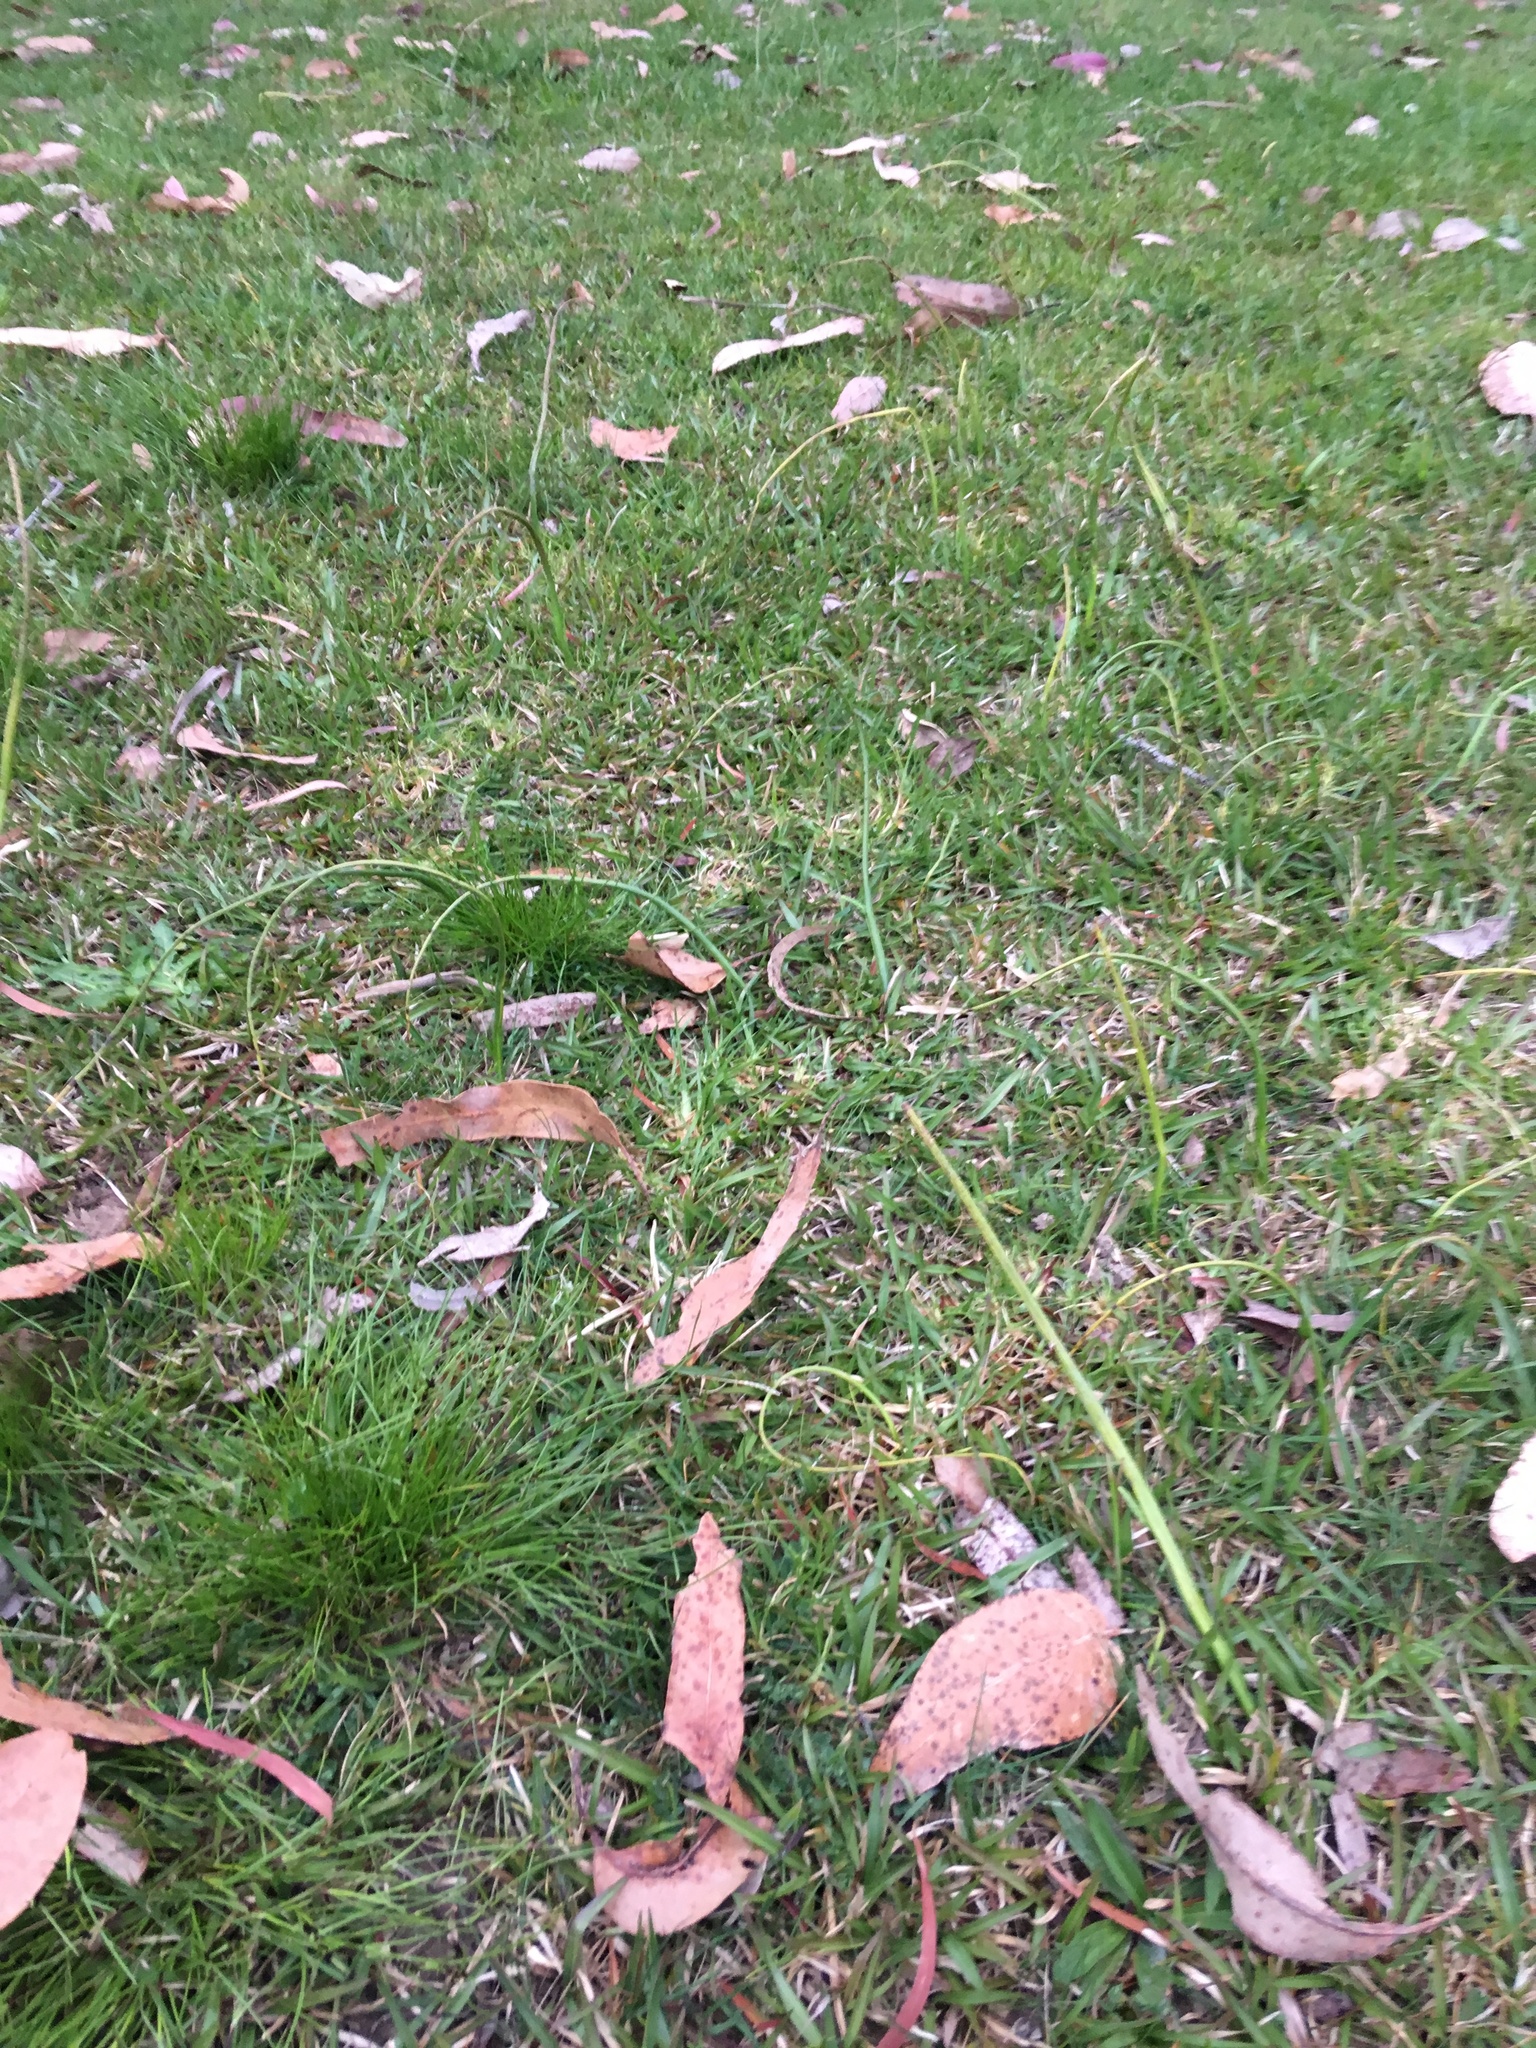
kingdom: Plantae
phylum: Tracheophyta
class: Liliopsida
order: Asparagales
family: Orchidaceae
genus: Microtis
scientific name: Microtis unifolia
